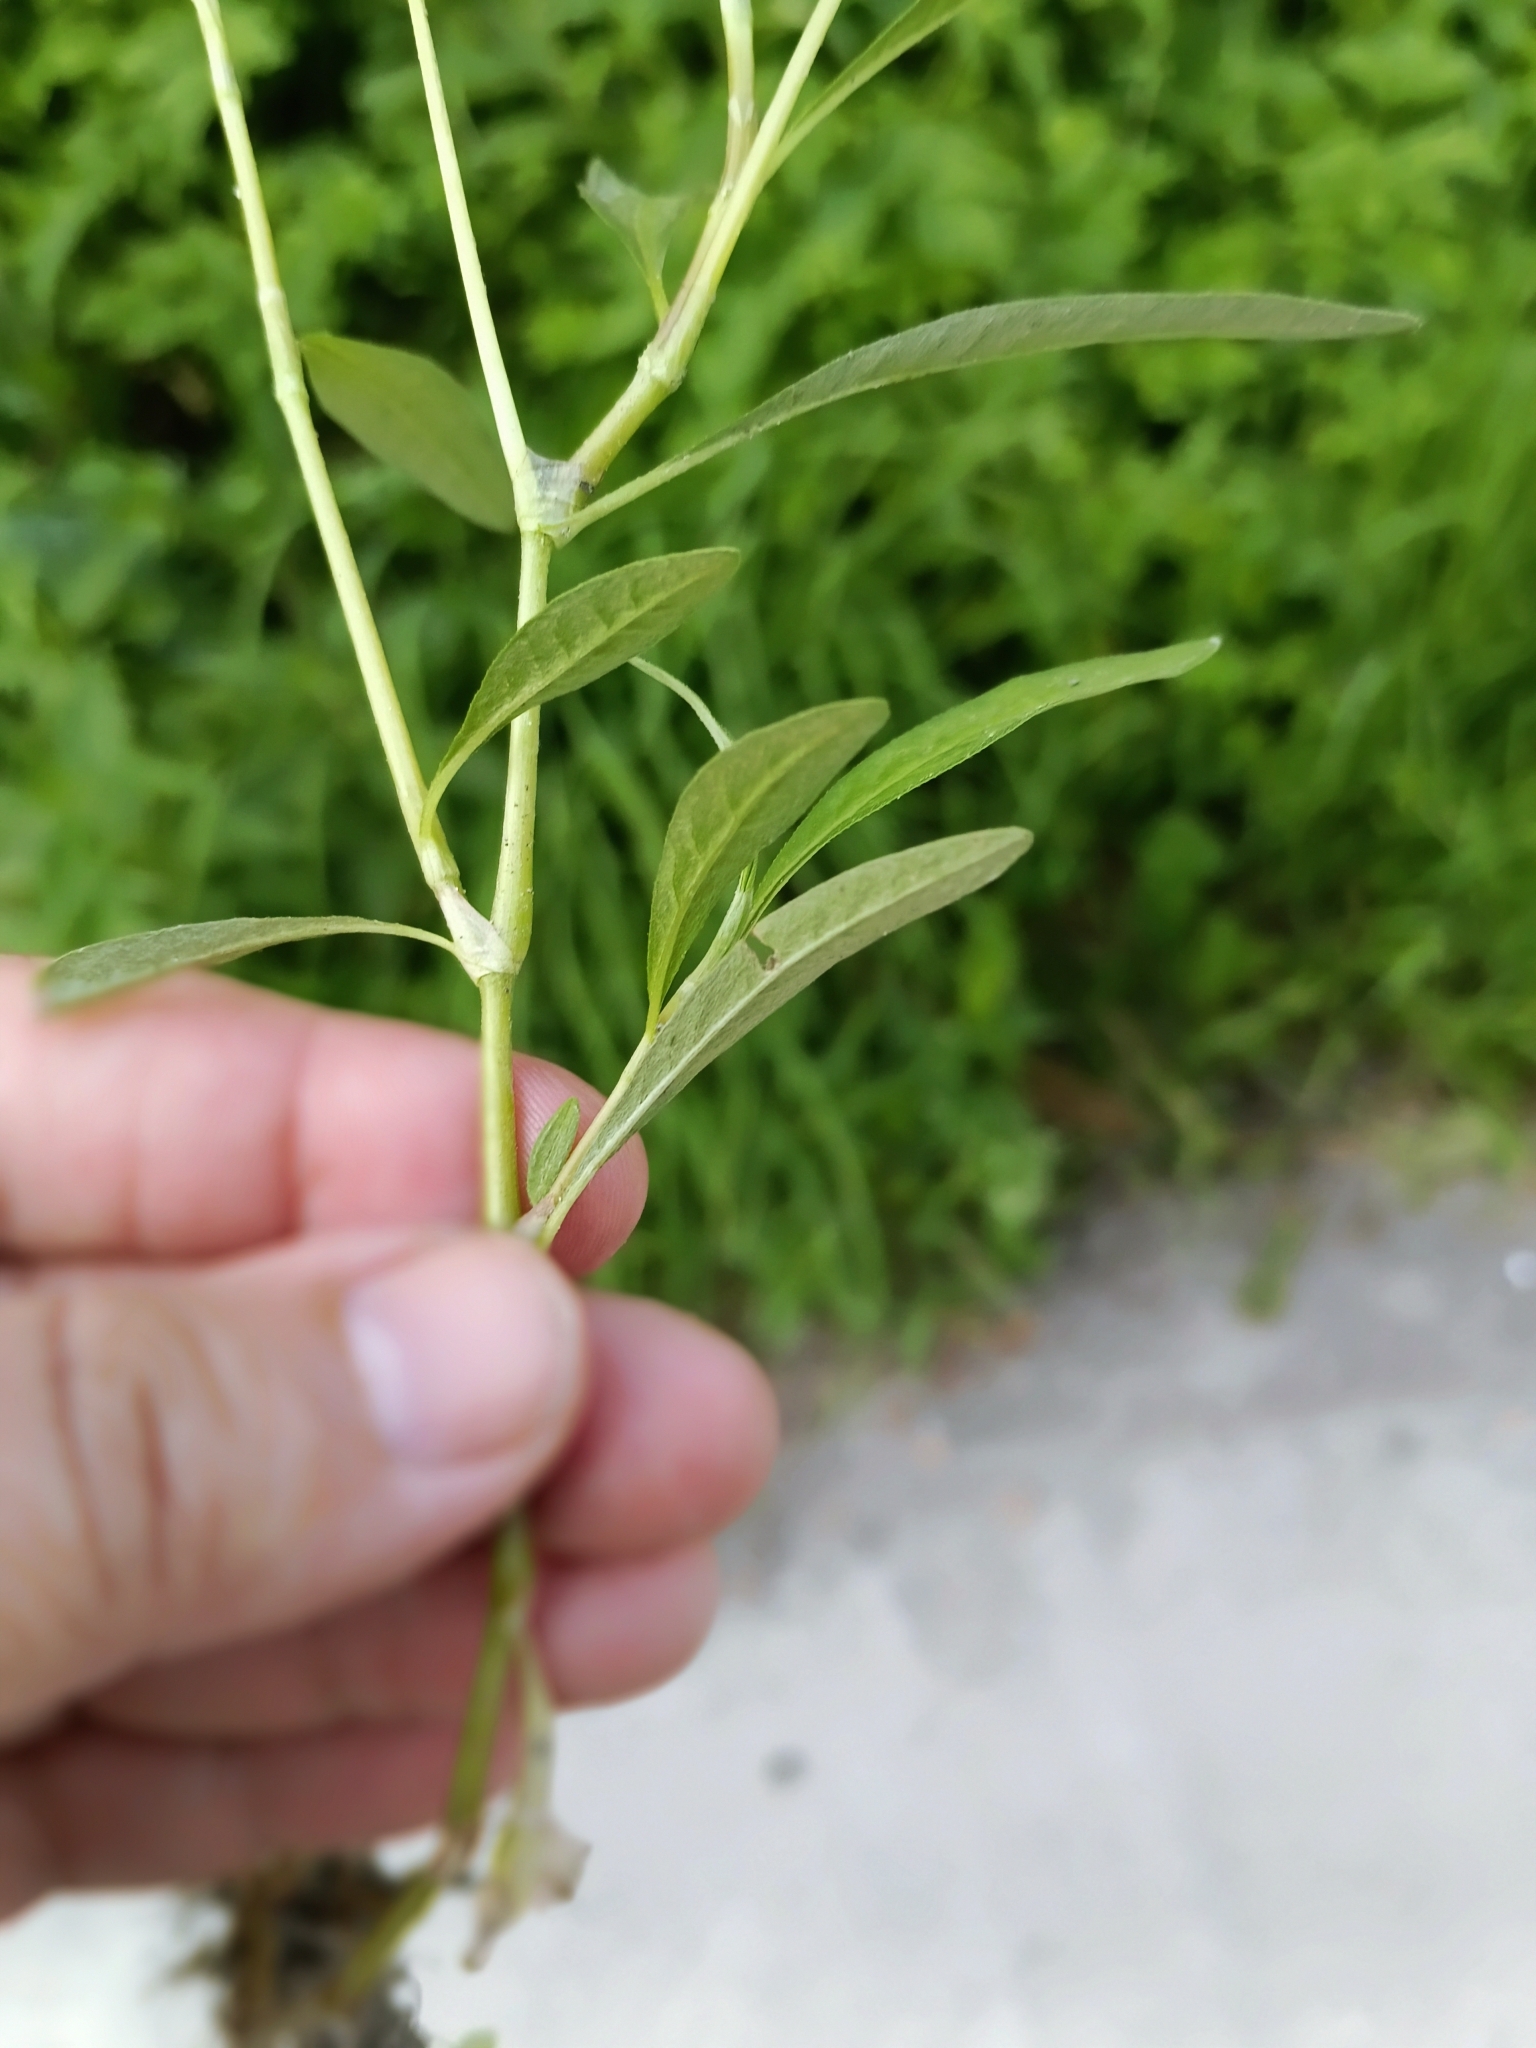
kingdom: Plantae
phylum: Tracheophyta
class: Magnoliopsida
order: Caryophyllales
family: Polygonaceae
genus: Persicaria
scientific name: Persicaria lapathifolia
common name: Curlytop knotweed
